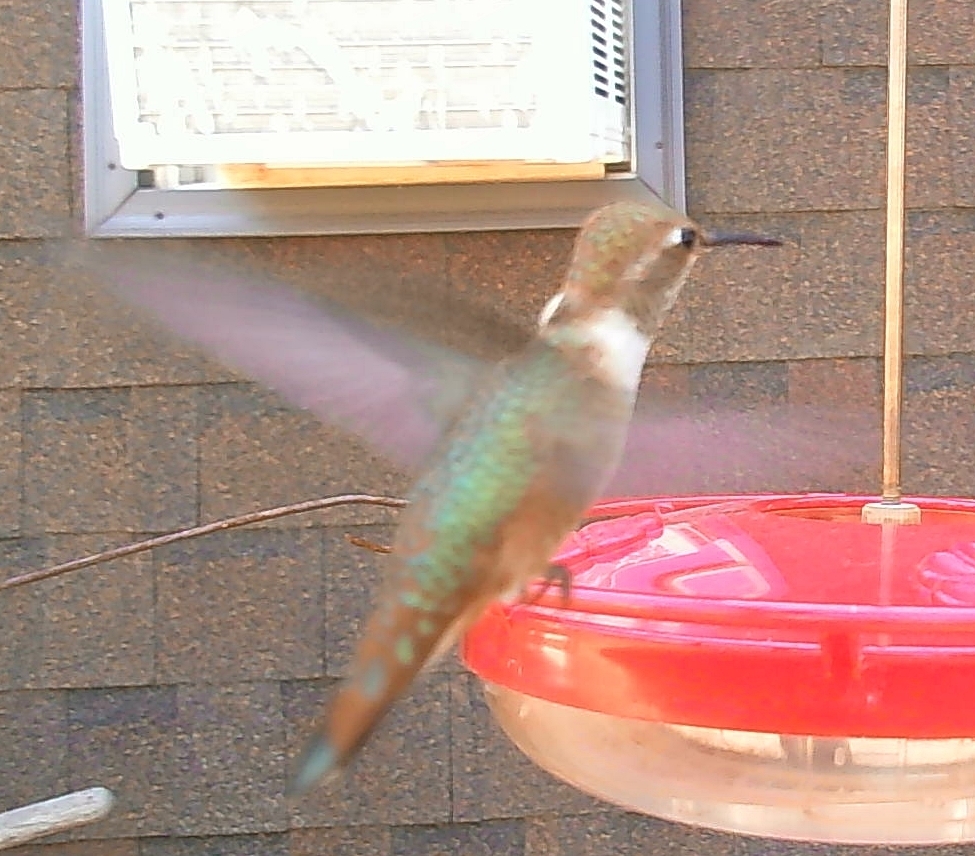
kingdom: Animalia
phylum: Chordata
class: Aves
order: Apodiformes
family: Trochilidae
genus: Selasphorus
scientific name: Selasphorus rufus
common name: Rufous hummingbird
